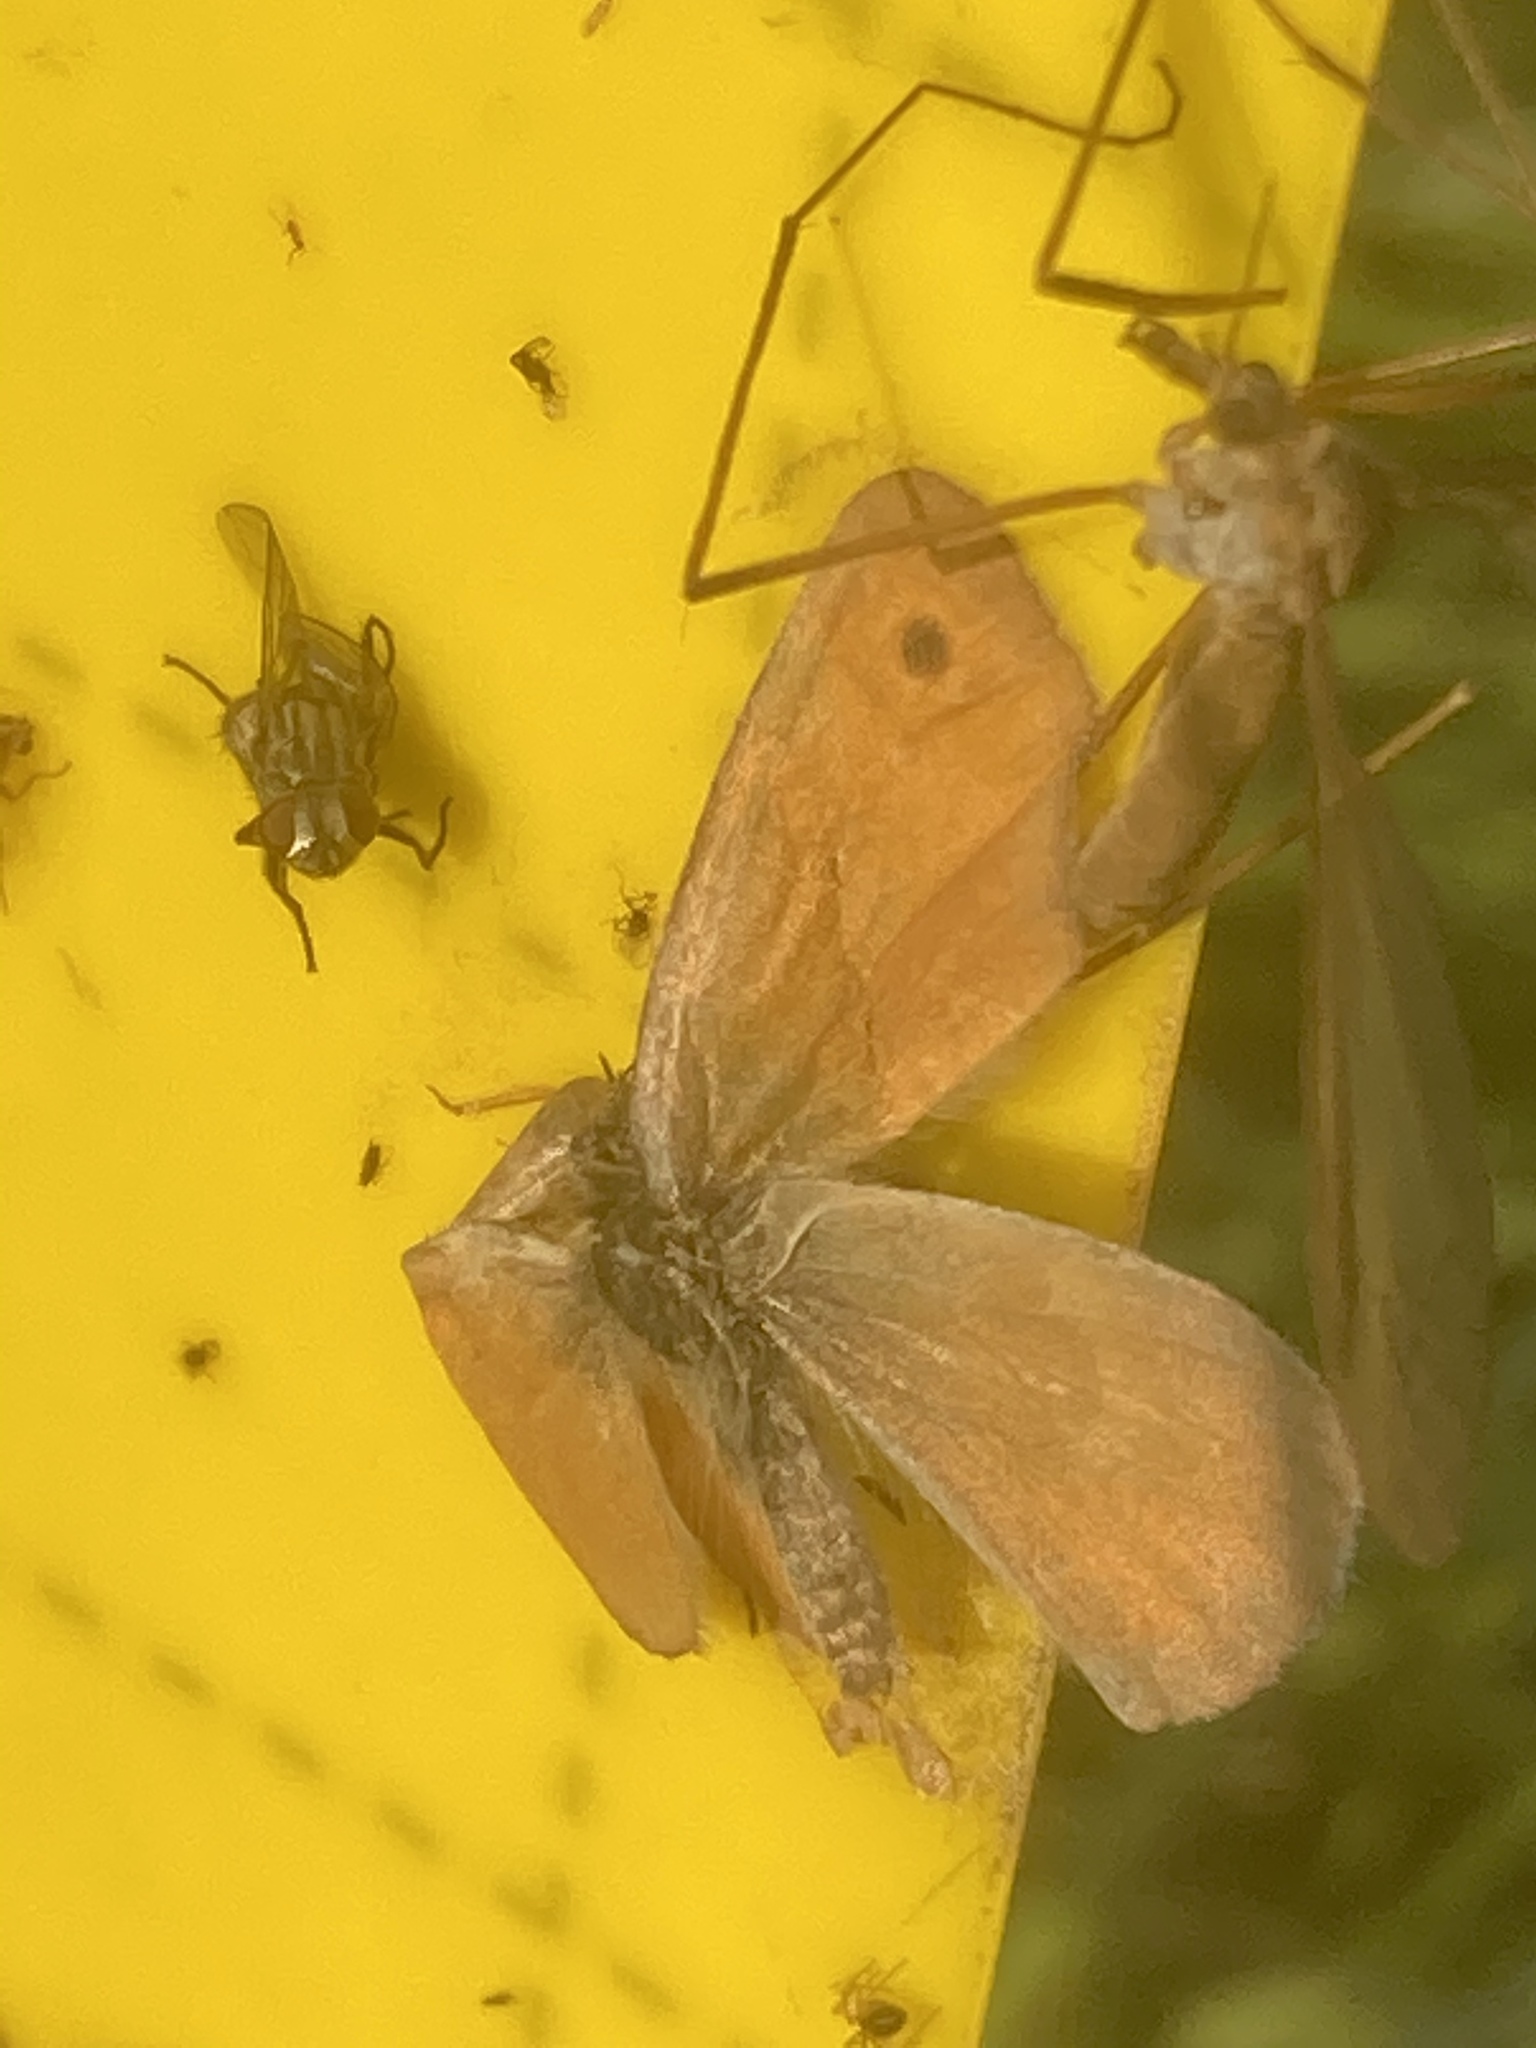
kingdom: Animalia
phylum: Arthropoda
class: Insecta
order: Lepidoptera
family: Nymphalidae
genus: Coenonympha
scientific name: Coenonympha pamphilus
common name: Small heath
